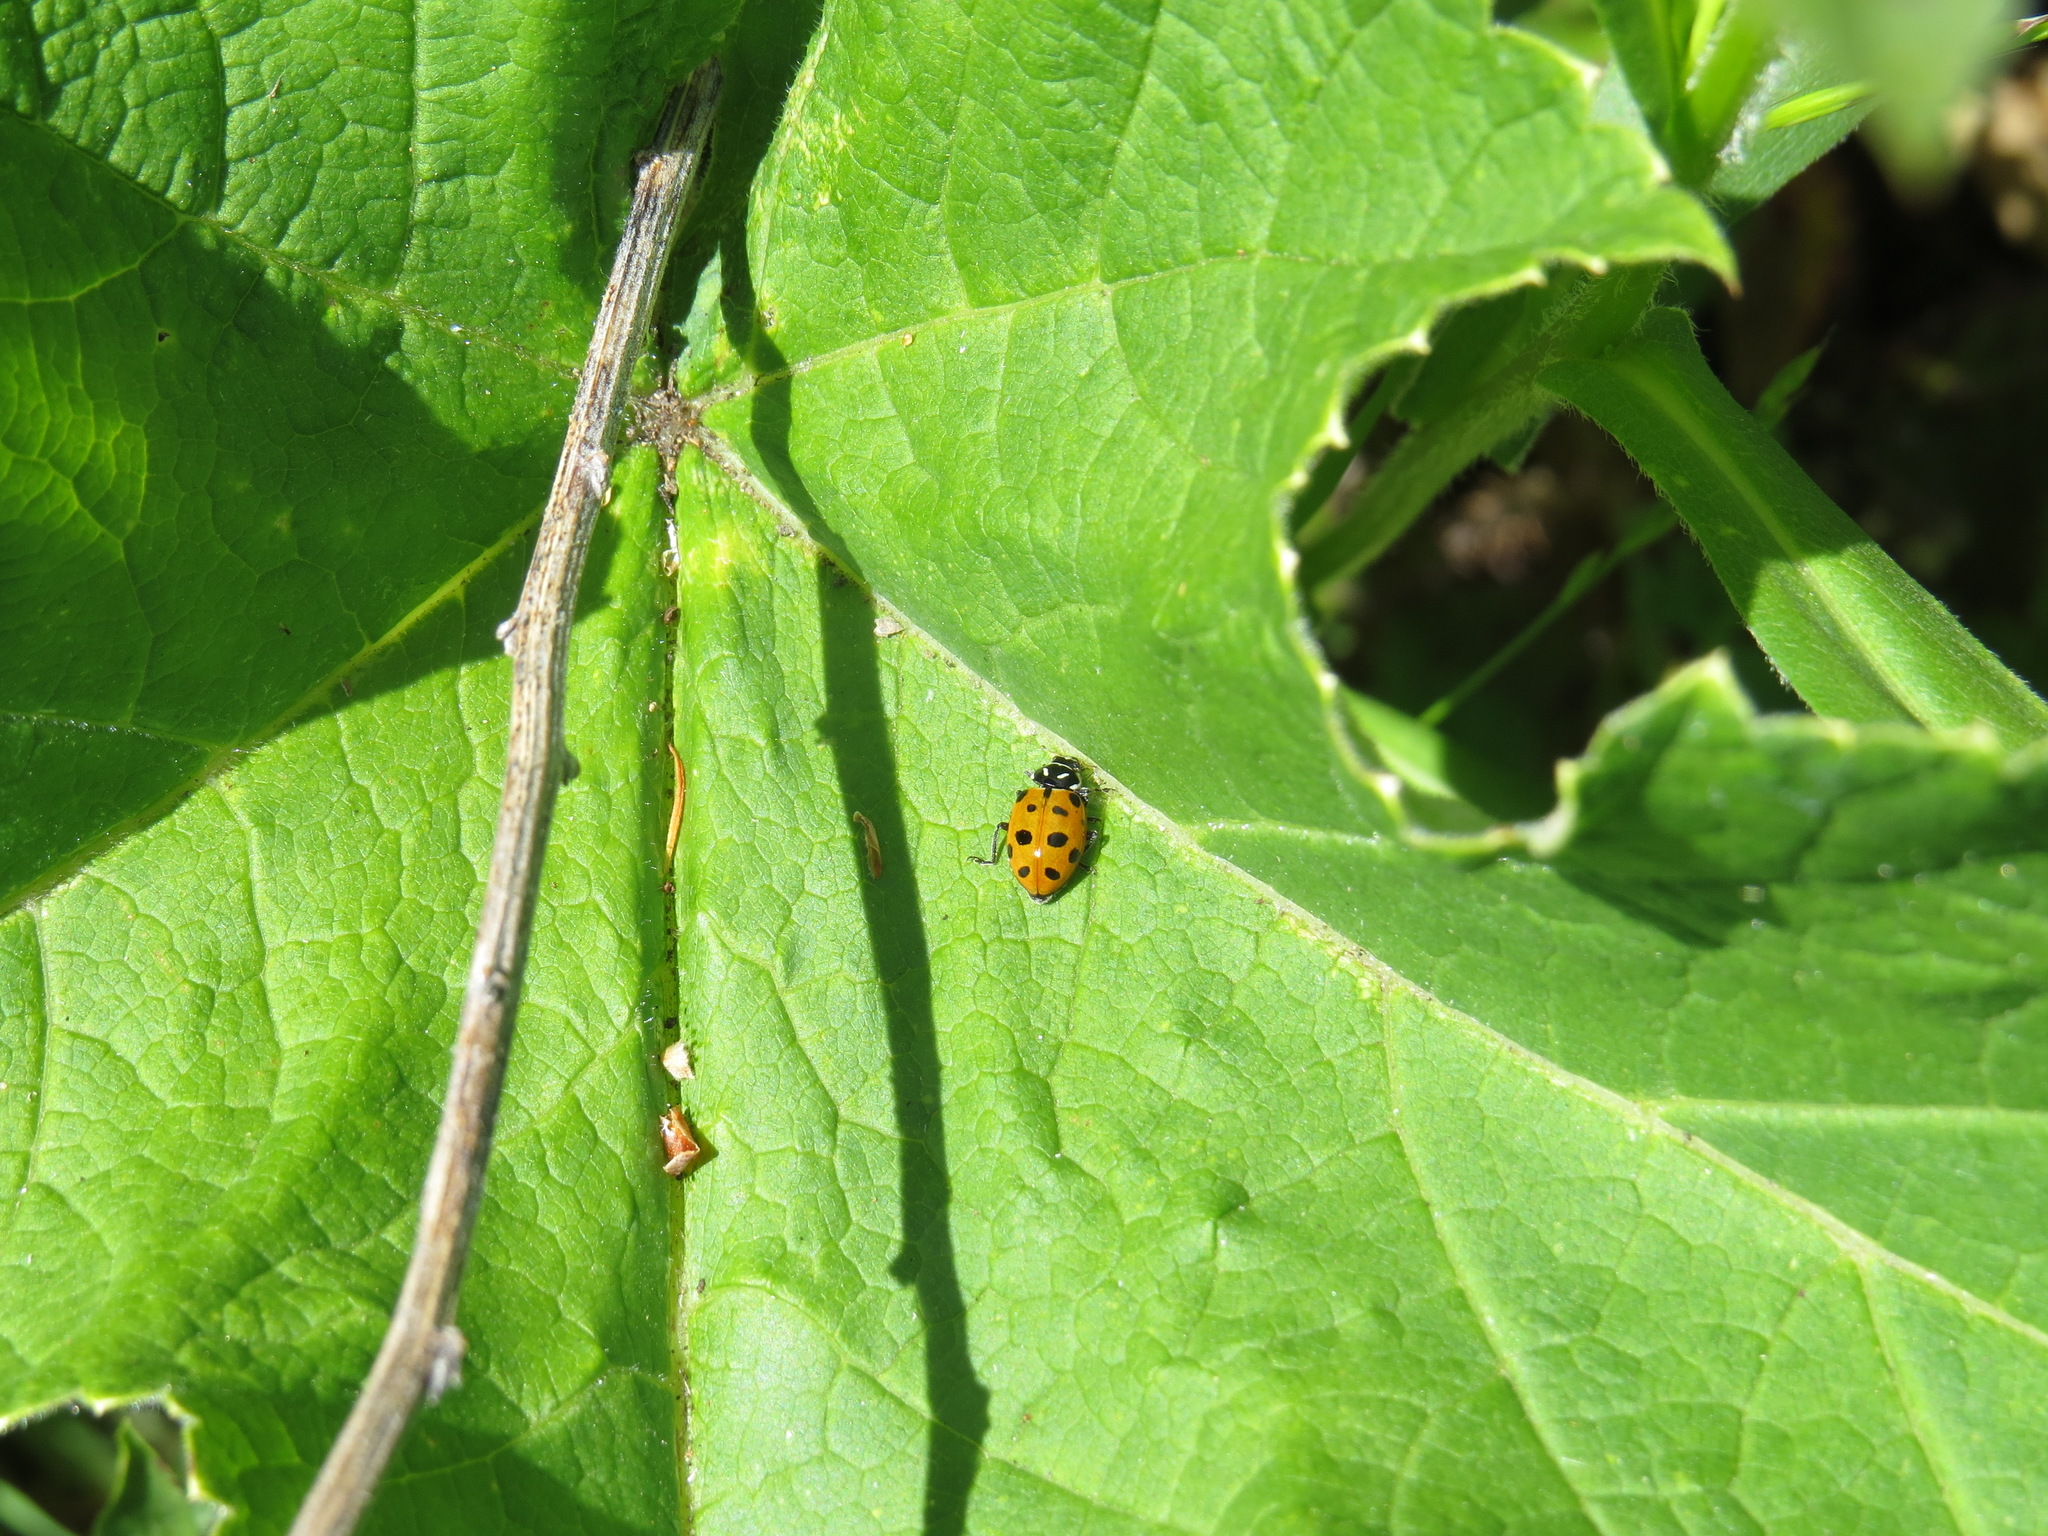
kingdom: Animalia
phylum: Arthropoda
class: Insecta
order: Coleoptera
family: Coccinellidae
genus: Hippodamia
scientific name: Hippodamia convergens
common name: Convergent lady beetle
